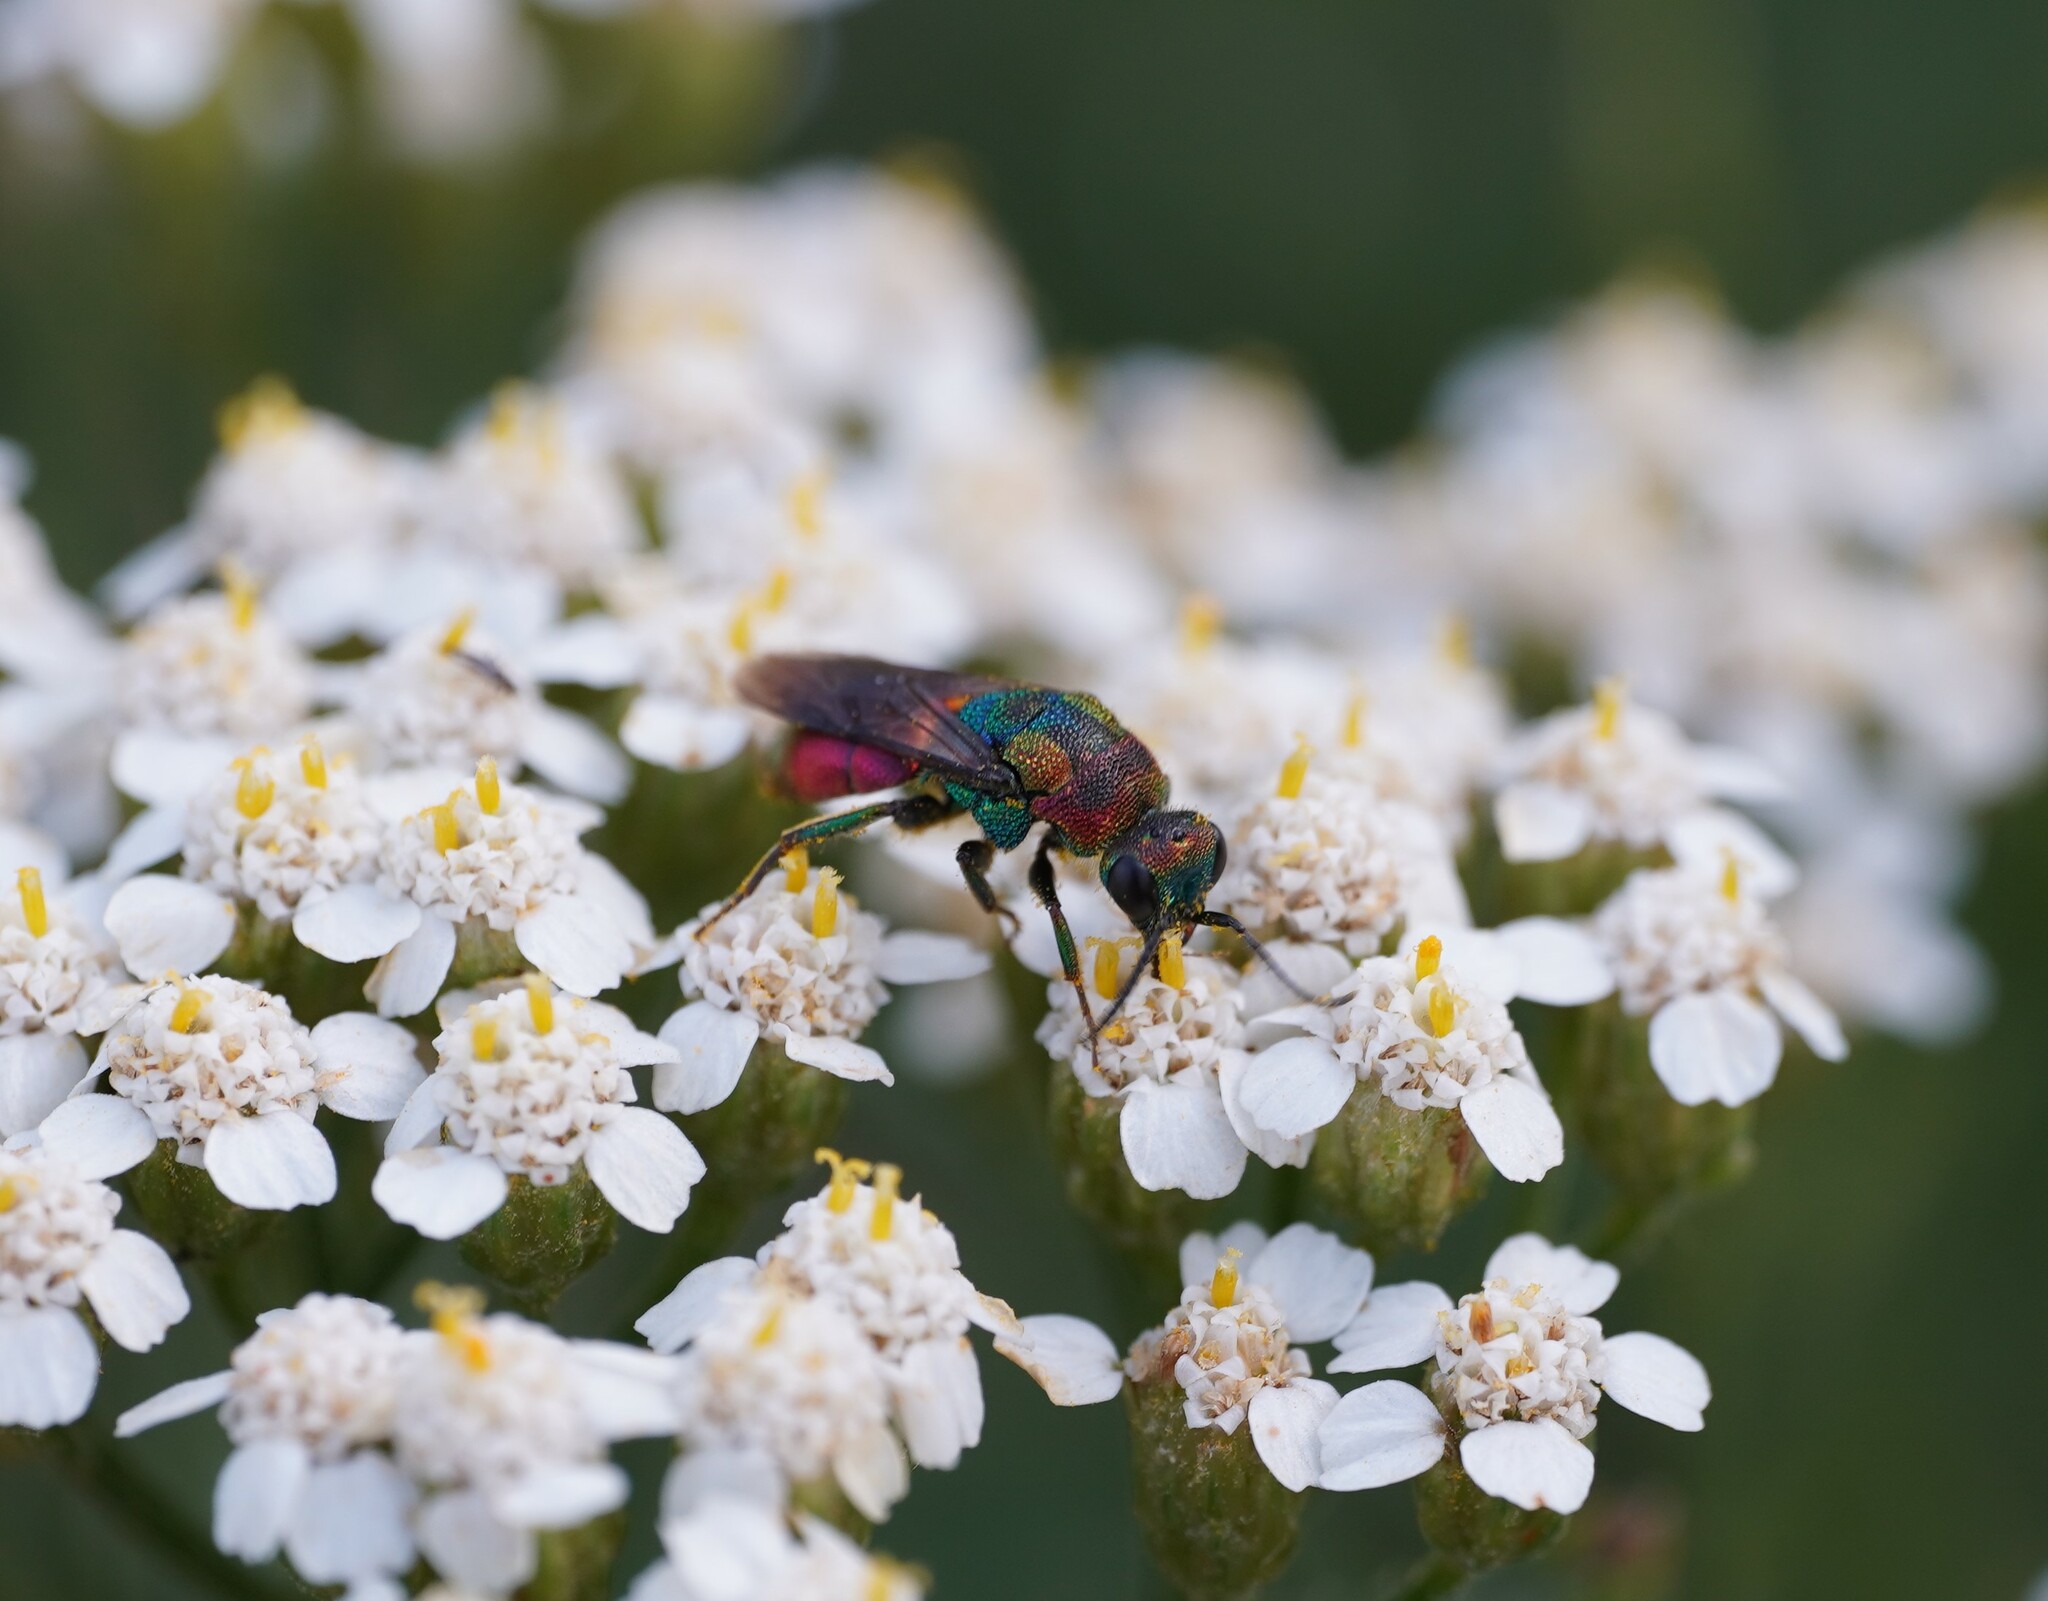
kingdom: Animalia
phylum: Arthropoda
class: Insecta
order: Hymenoptera
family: Chrysididae
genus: Hedychrum
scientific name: Hedychrum rutilans
